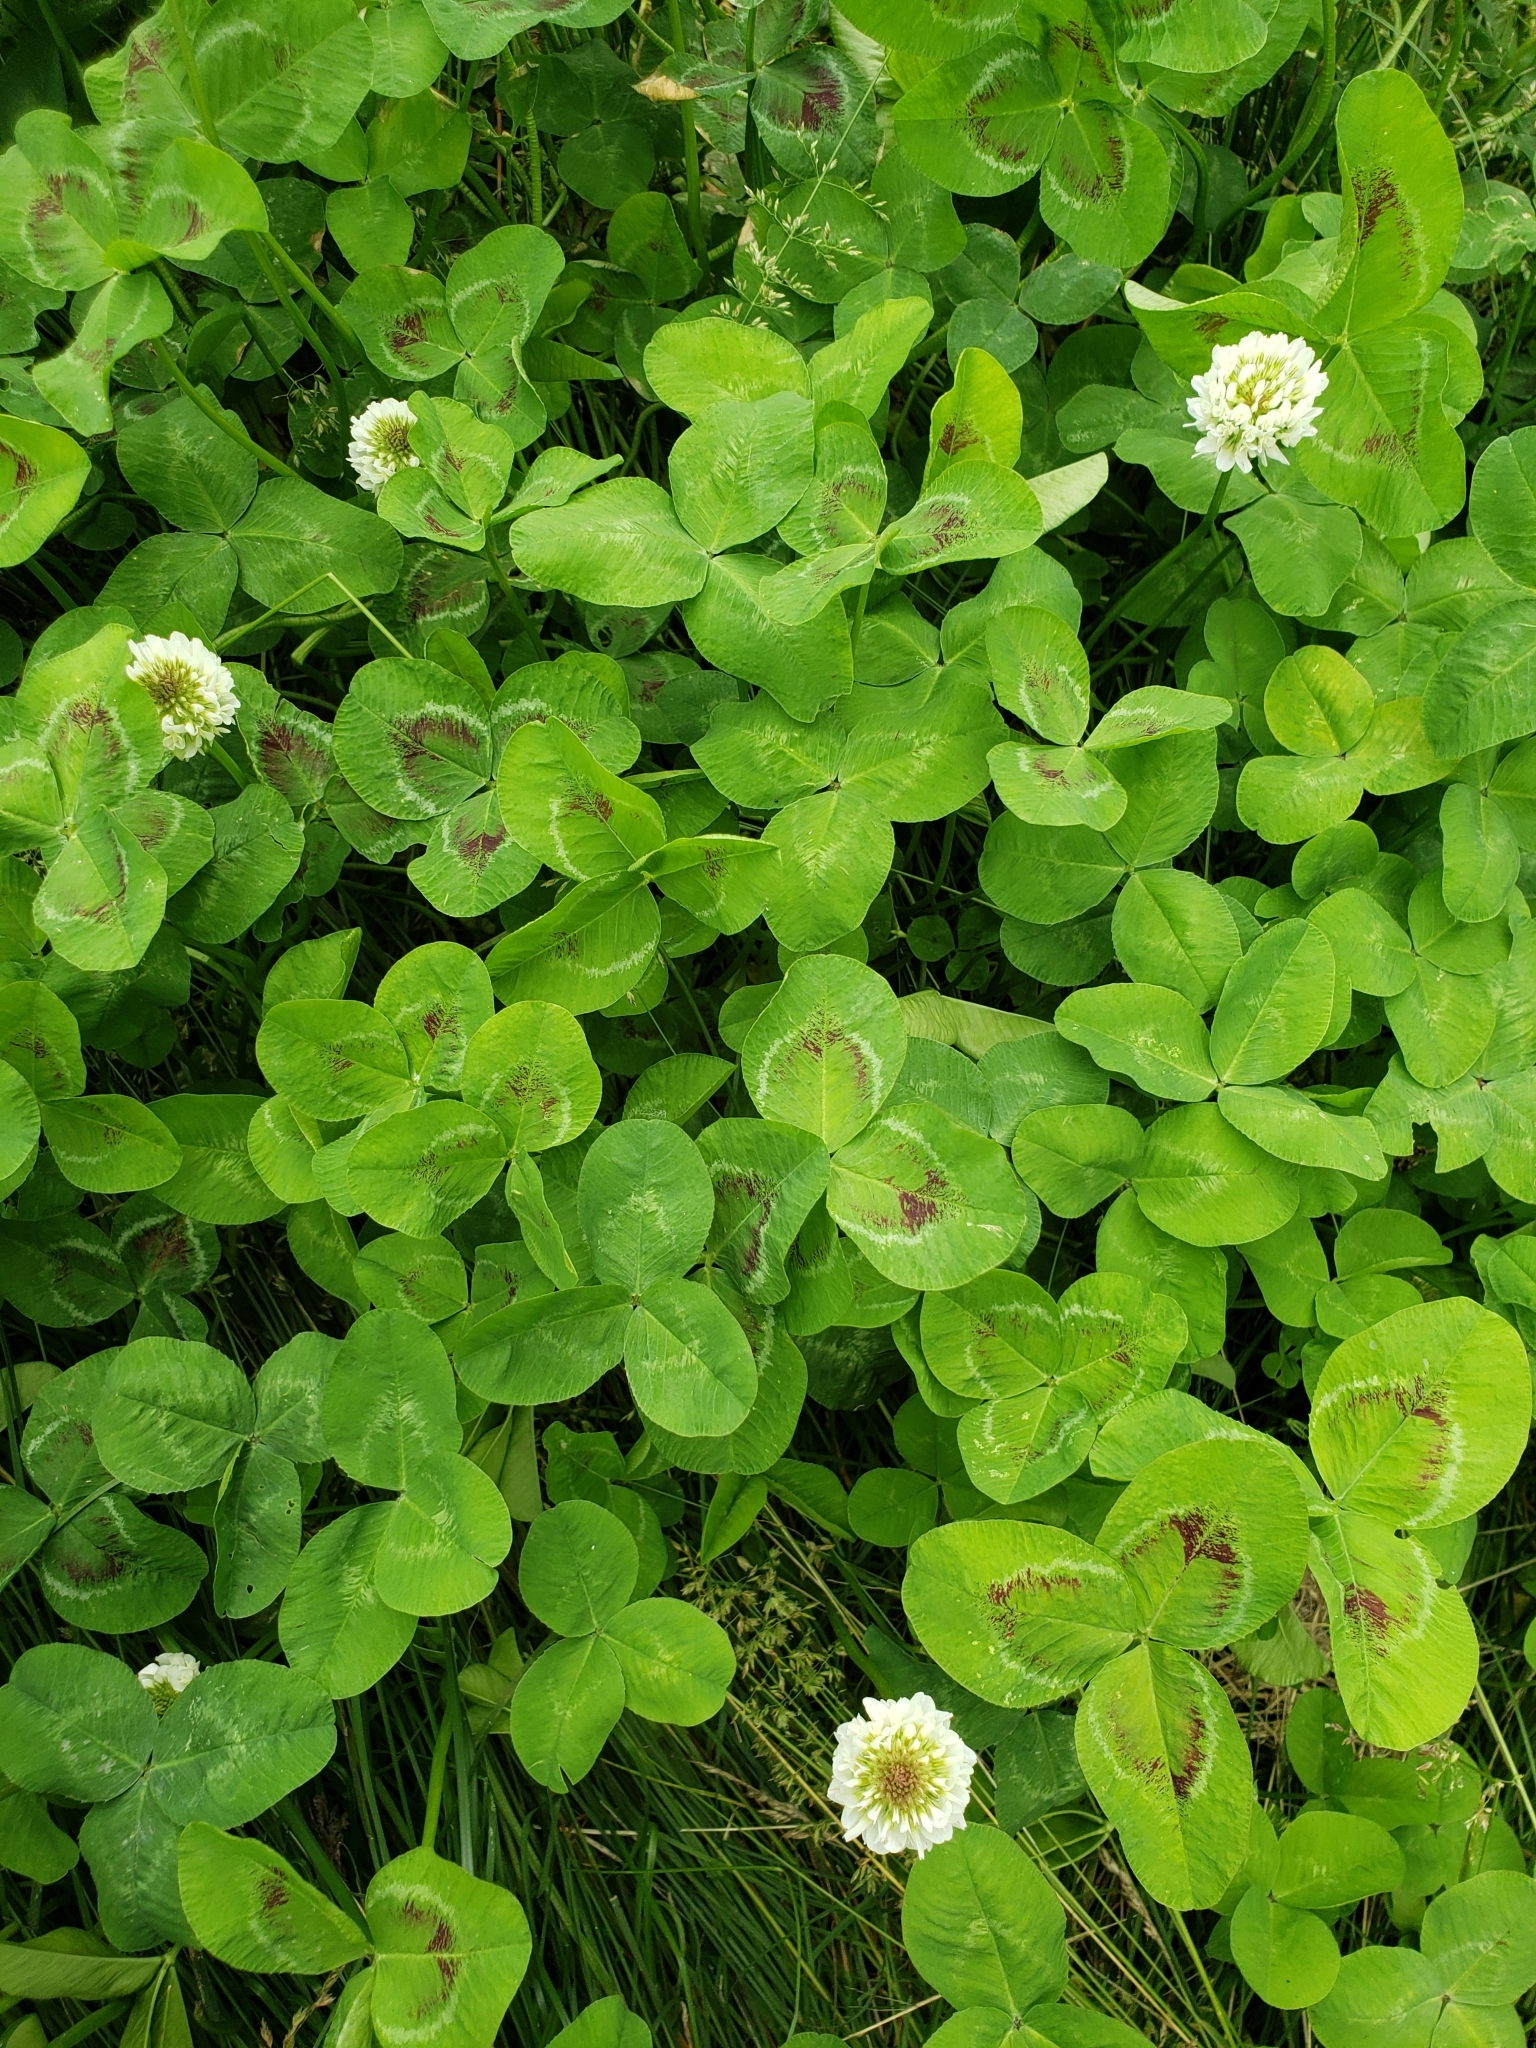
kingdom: Plantae
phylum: Tracheophyta
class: Magnoliopsida
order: Fabales
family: Fabaceae
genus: Trifolium
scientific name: Trifolium repens
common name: White clover
